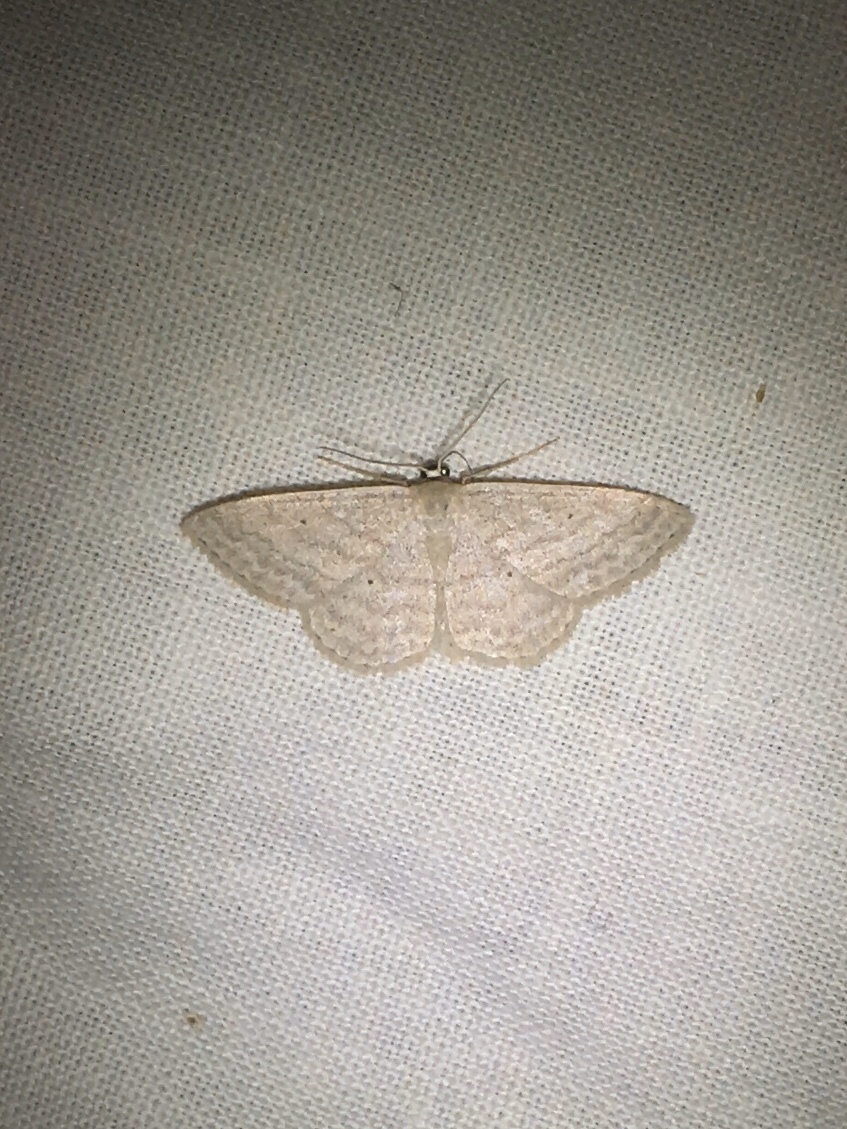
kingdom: Animalia
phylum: Arthropoda
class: Insecta
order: Lepidoptera
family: Geometridae
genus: Scopula
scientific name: Scopula inductata
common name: Soft-lined wave
